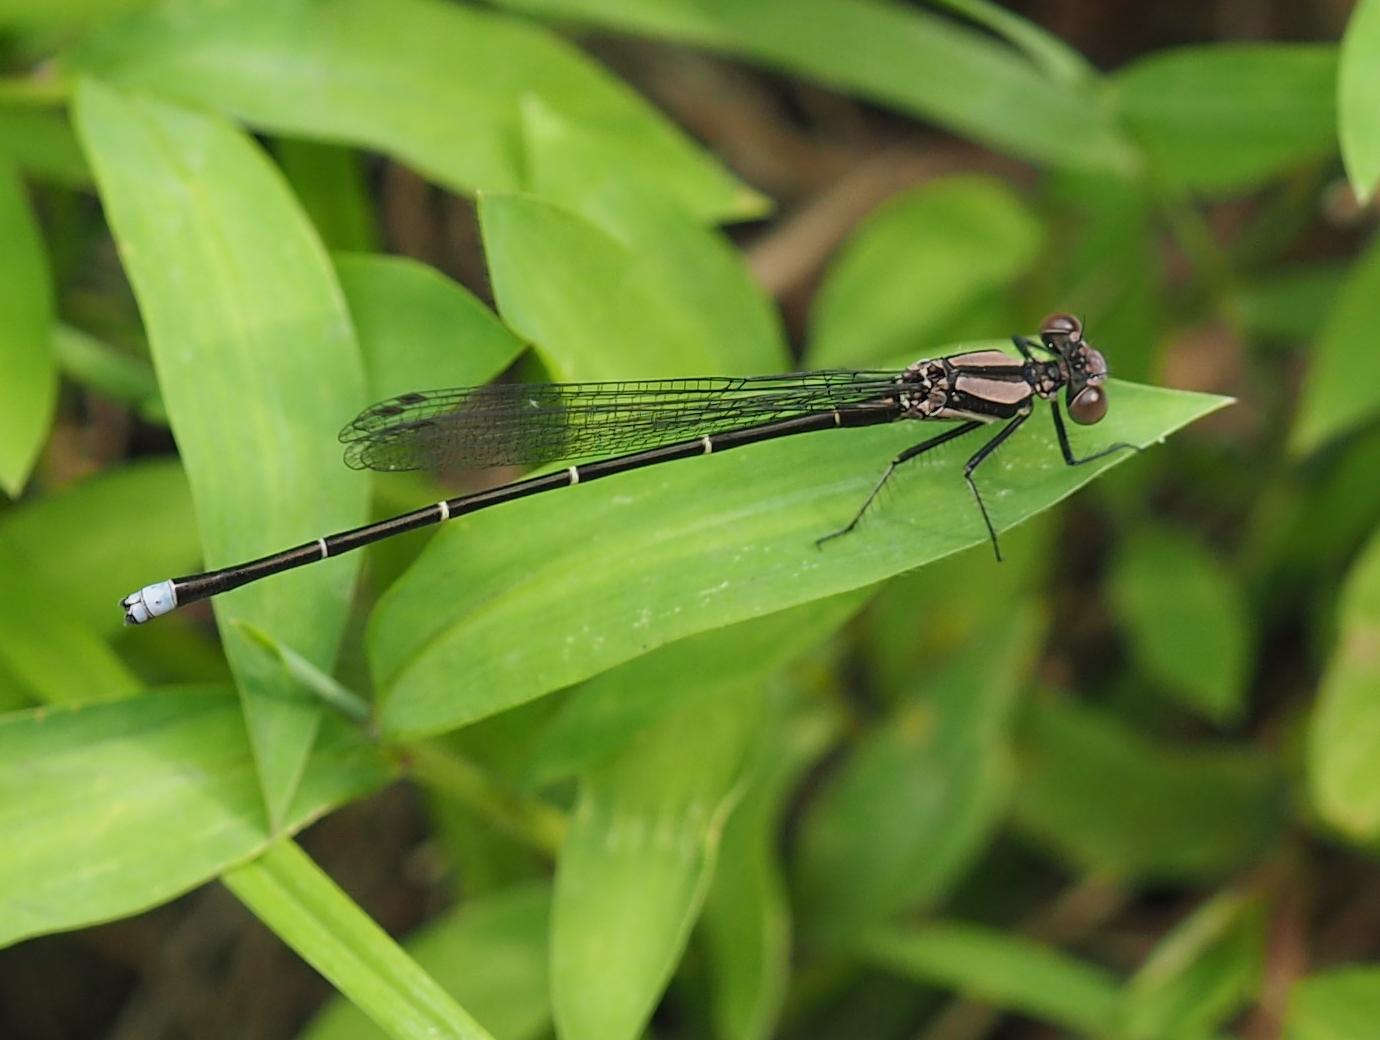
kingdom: Animalia
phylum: Arthropoda
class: Insecta
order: Odonata
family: Coenagrionidae
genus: Argia
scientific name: Argia tibialis
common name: Blue-tipped dancer
